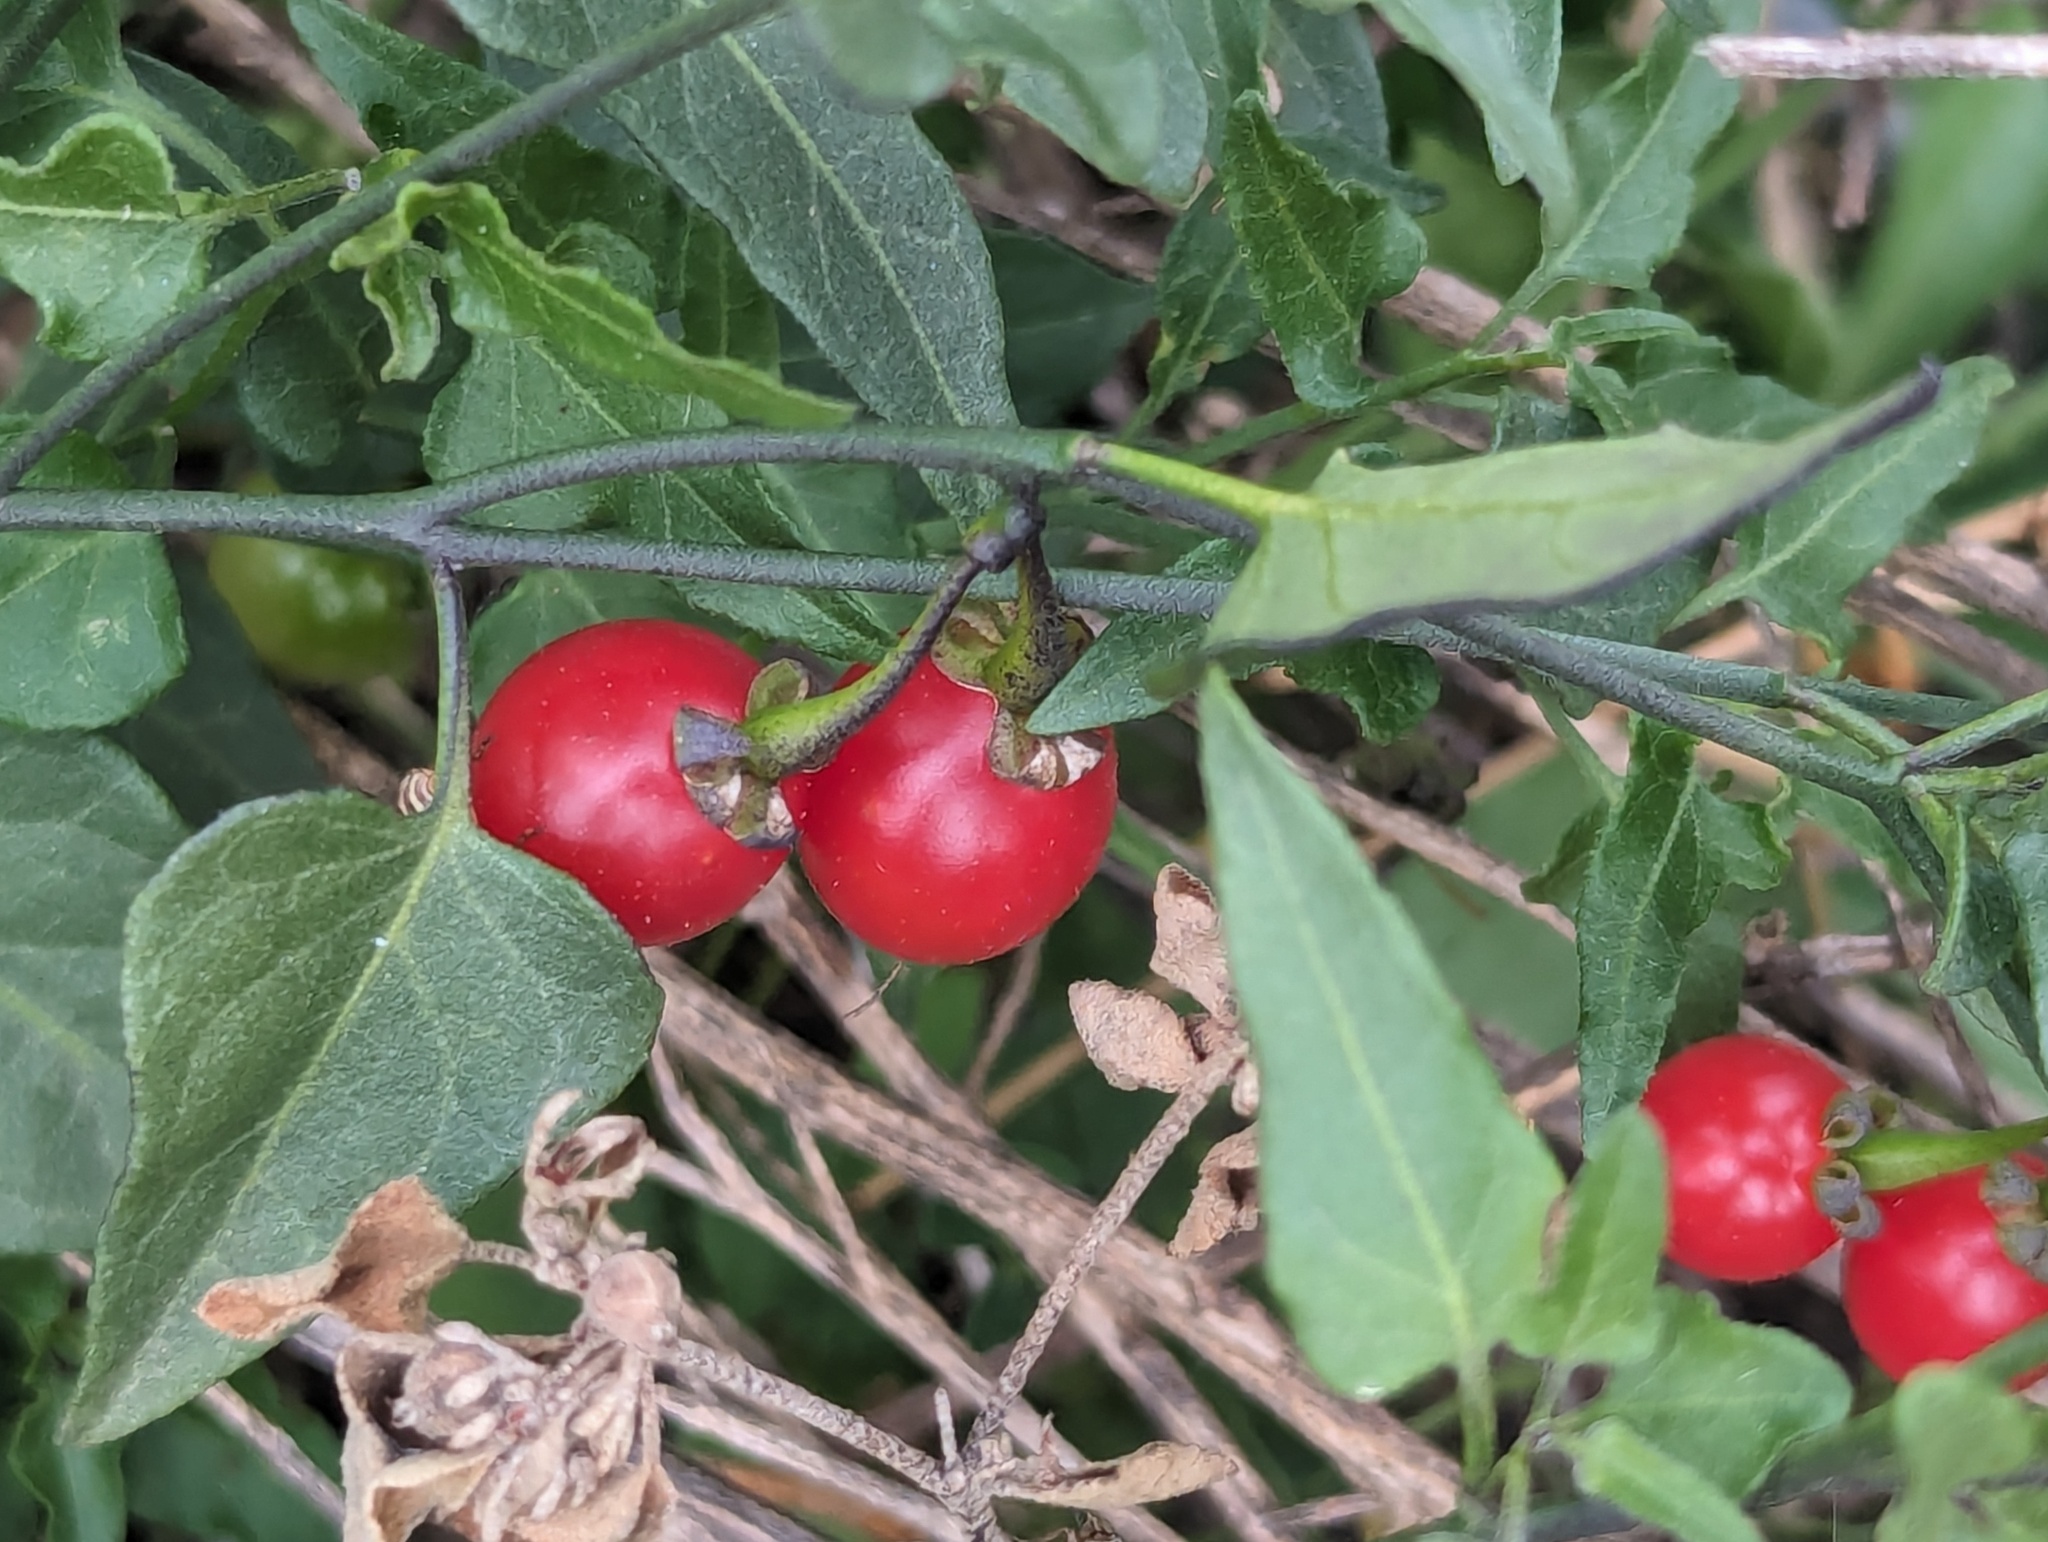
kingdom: Plantae
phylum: Tracheophyta
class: Magnoliopsida
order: Solanales
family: Solanaceae
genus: Solanum
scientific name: Solanum triquetrum
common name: Texas nightshade
